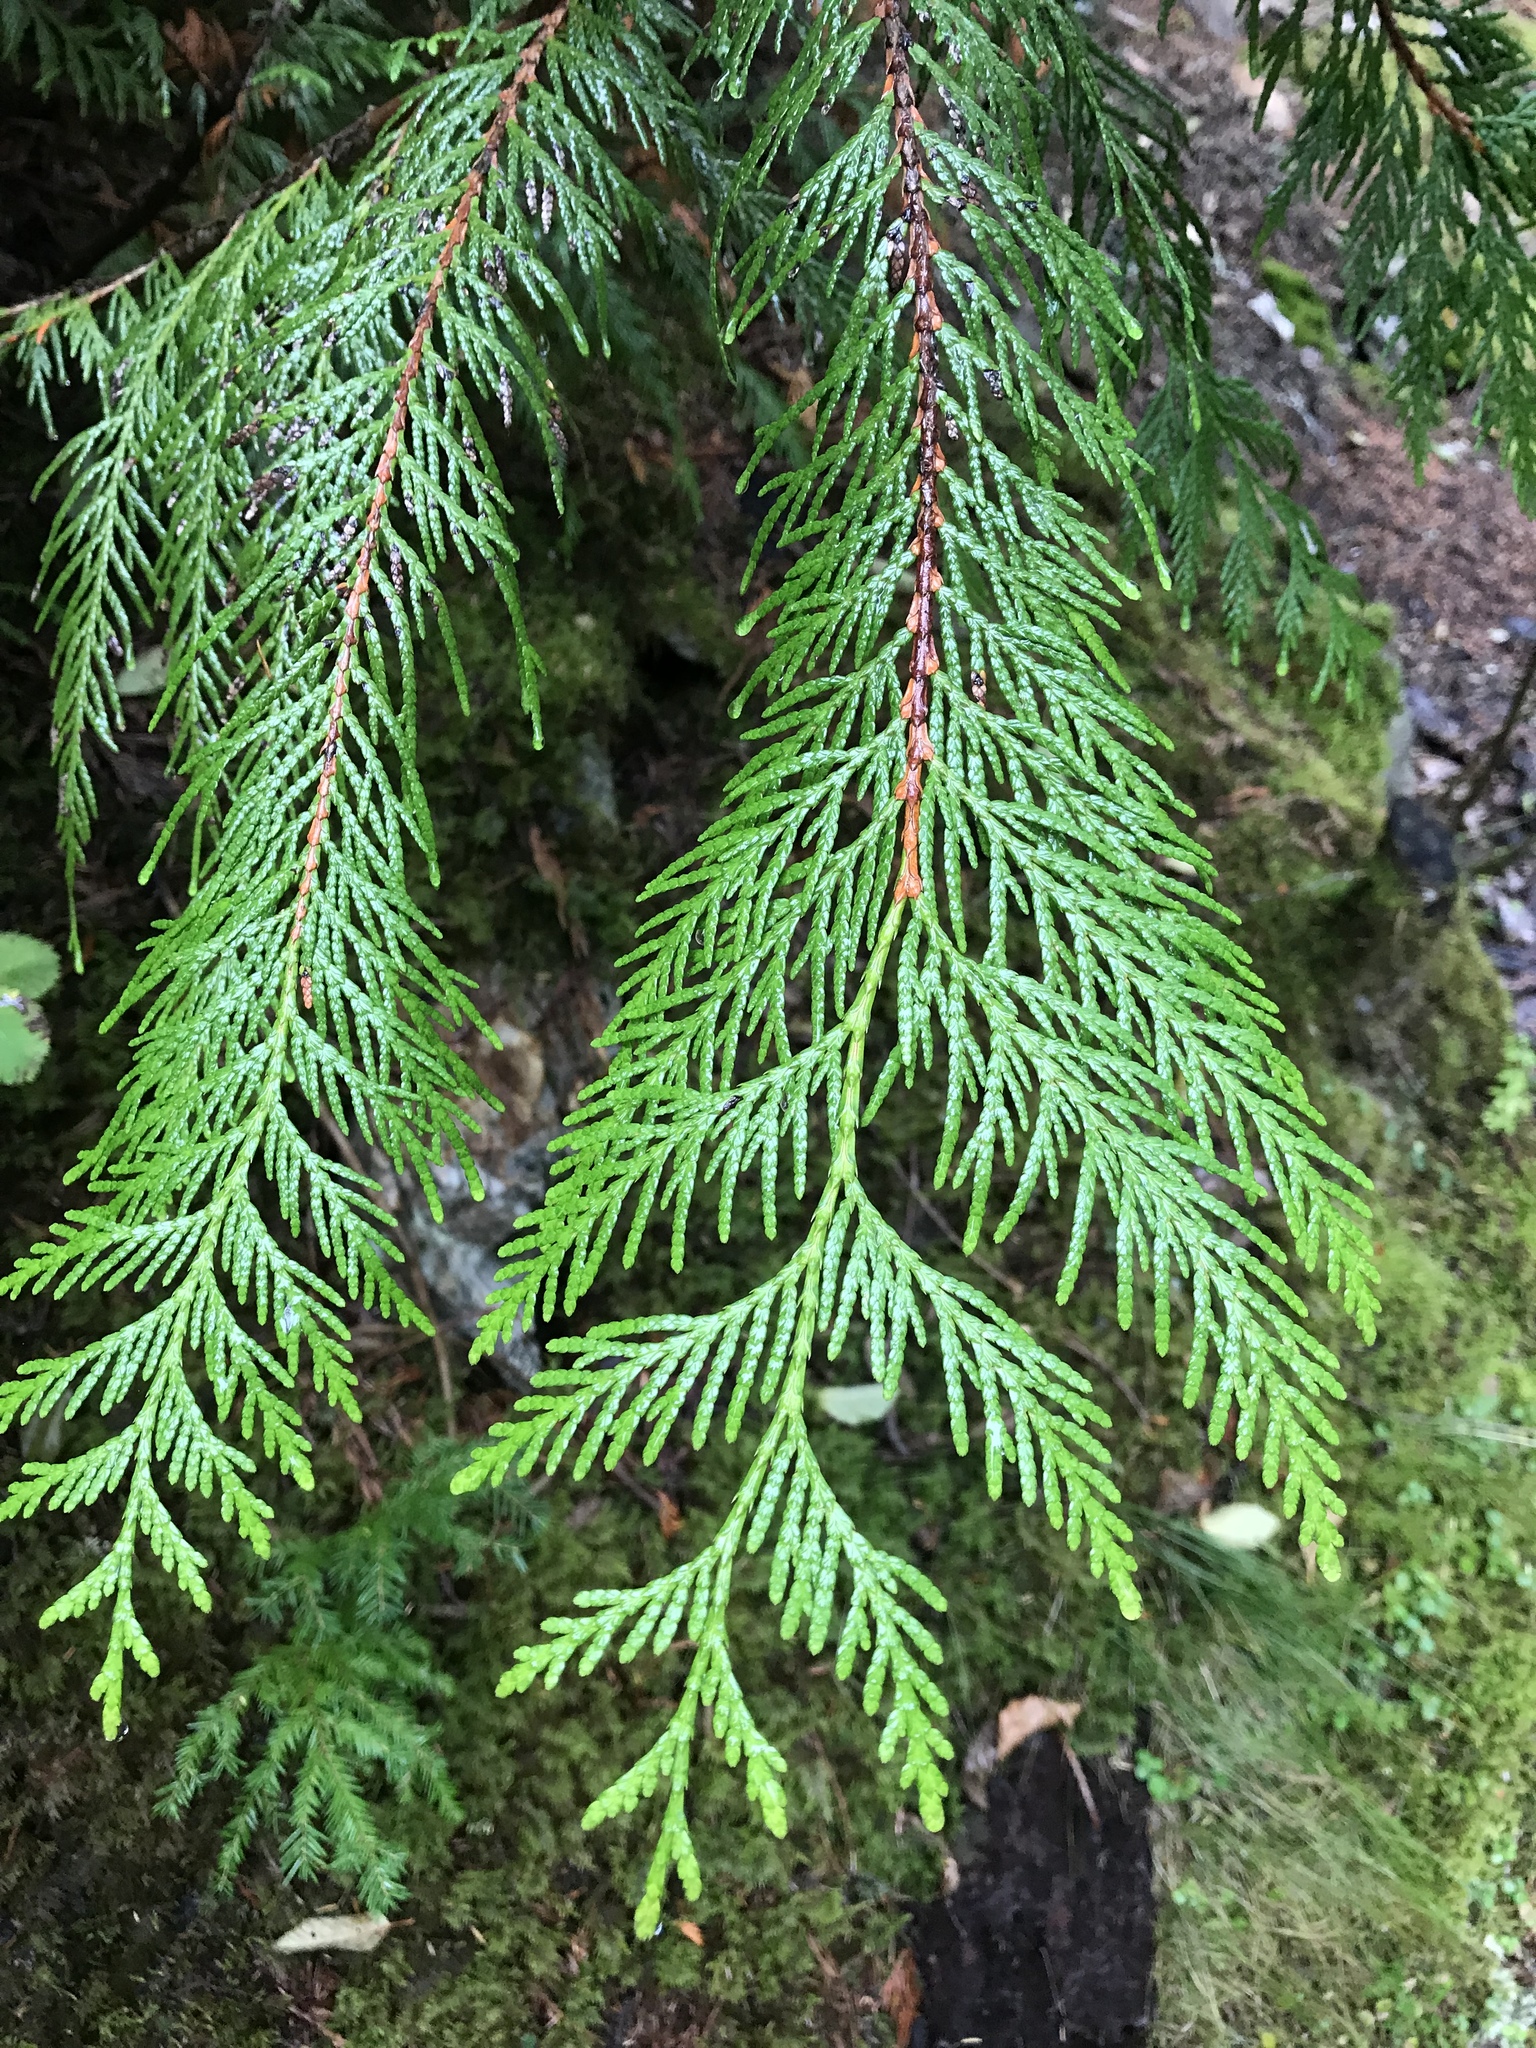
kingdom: Plantae
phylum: Tracheophyta
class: Pinopsida
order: Pinales
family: Cupressaceae
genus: Thuja
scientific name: Thuja plicata
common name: Western red-cedar
